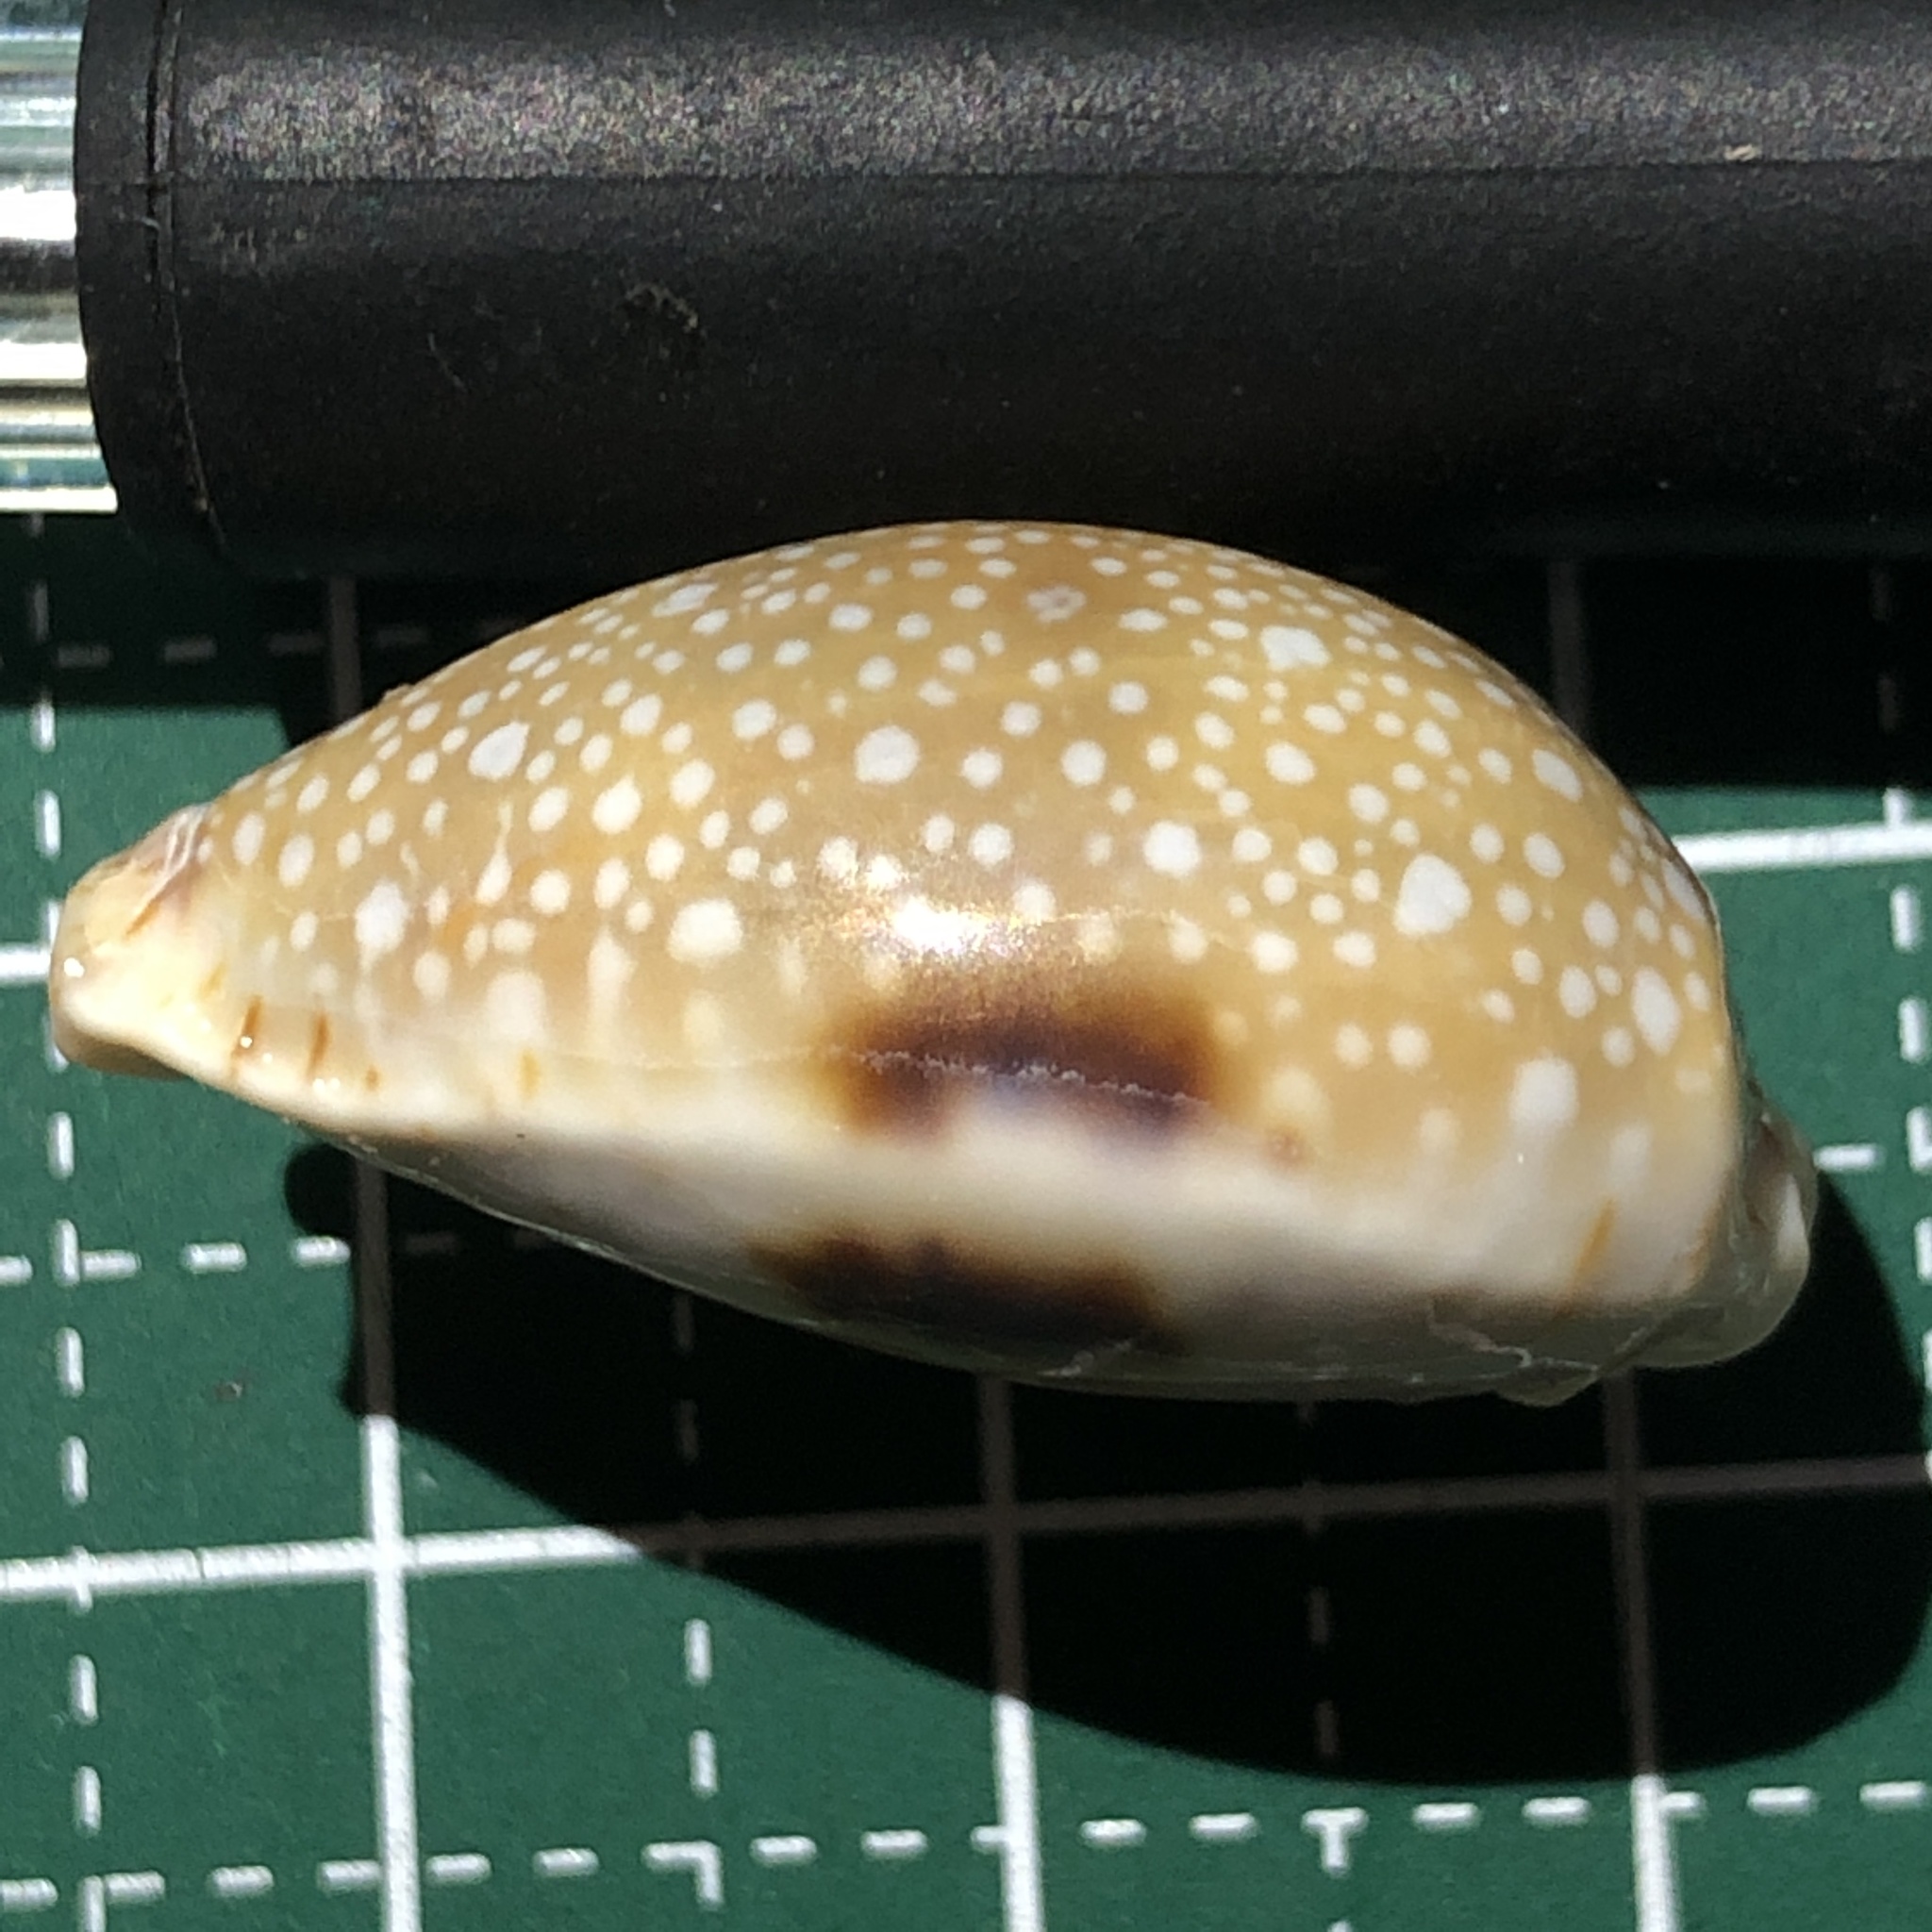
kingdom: Animalia
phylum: Mollusca
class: Gastropoda
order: Littorinimorpha
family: Cypraeidae
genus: Naria
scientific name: Naria erosa
